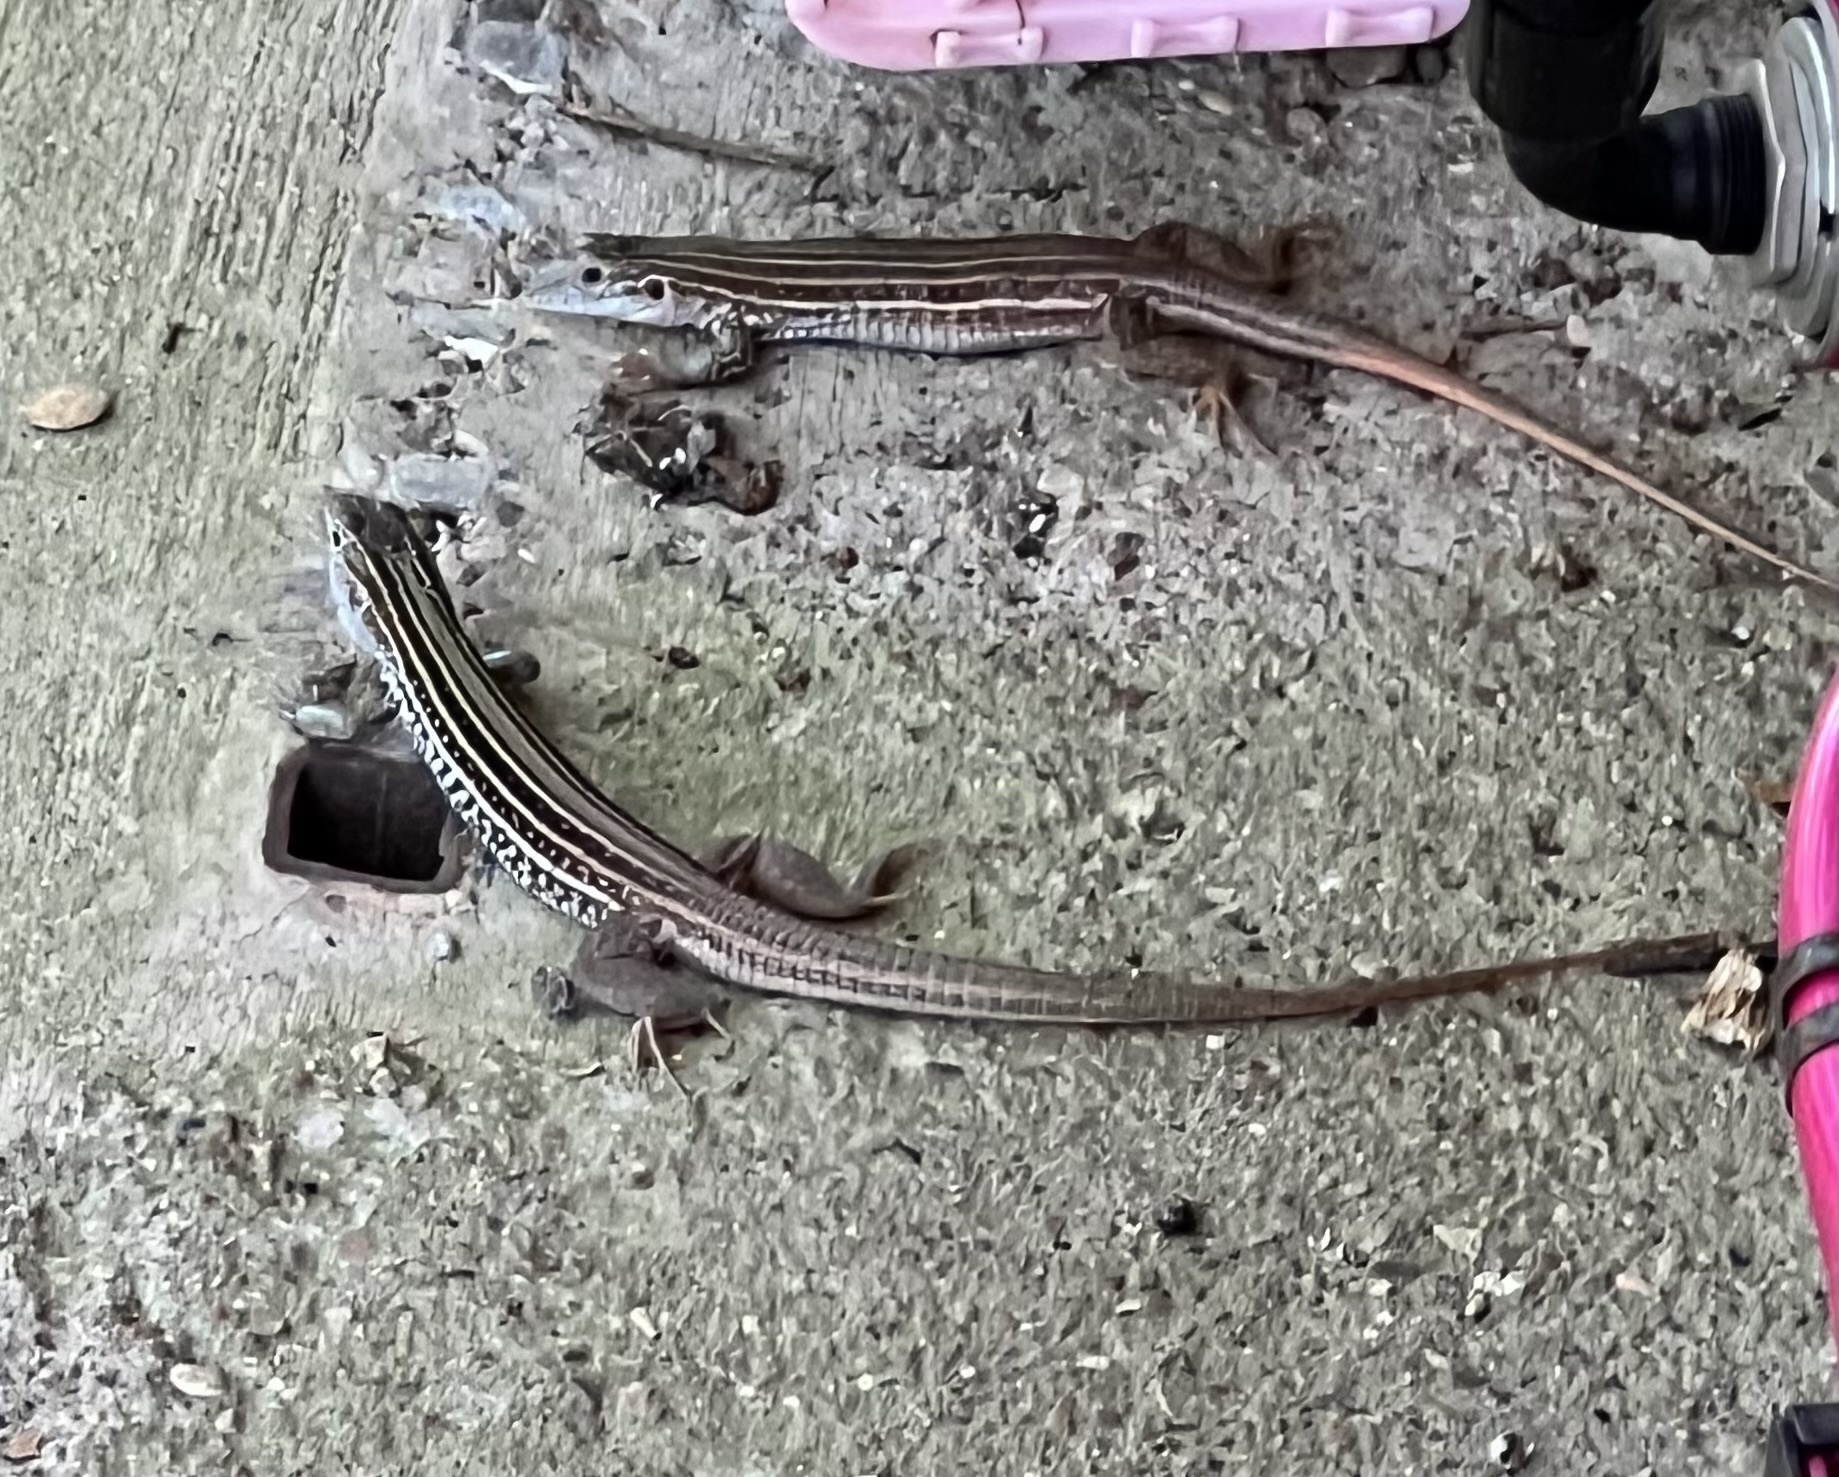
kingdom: Animalia
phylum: Chordata
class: Squamata
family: Teiidae
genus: Aspidoscelis
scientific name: Aspidoscelis gularis
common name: Eastern spotted whiptail
